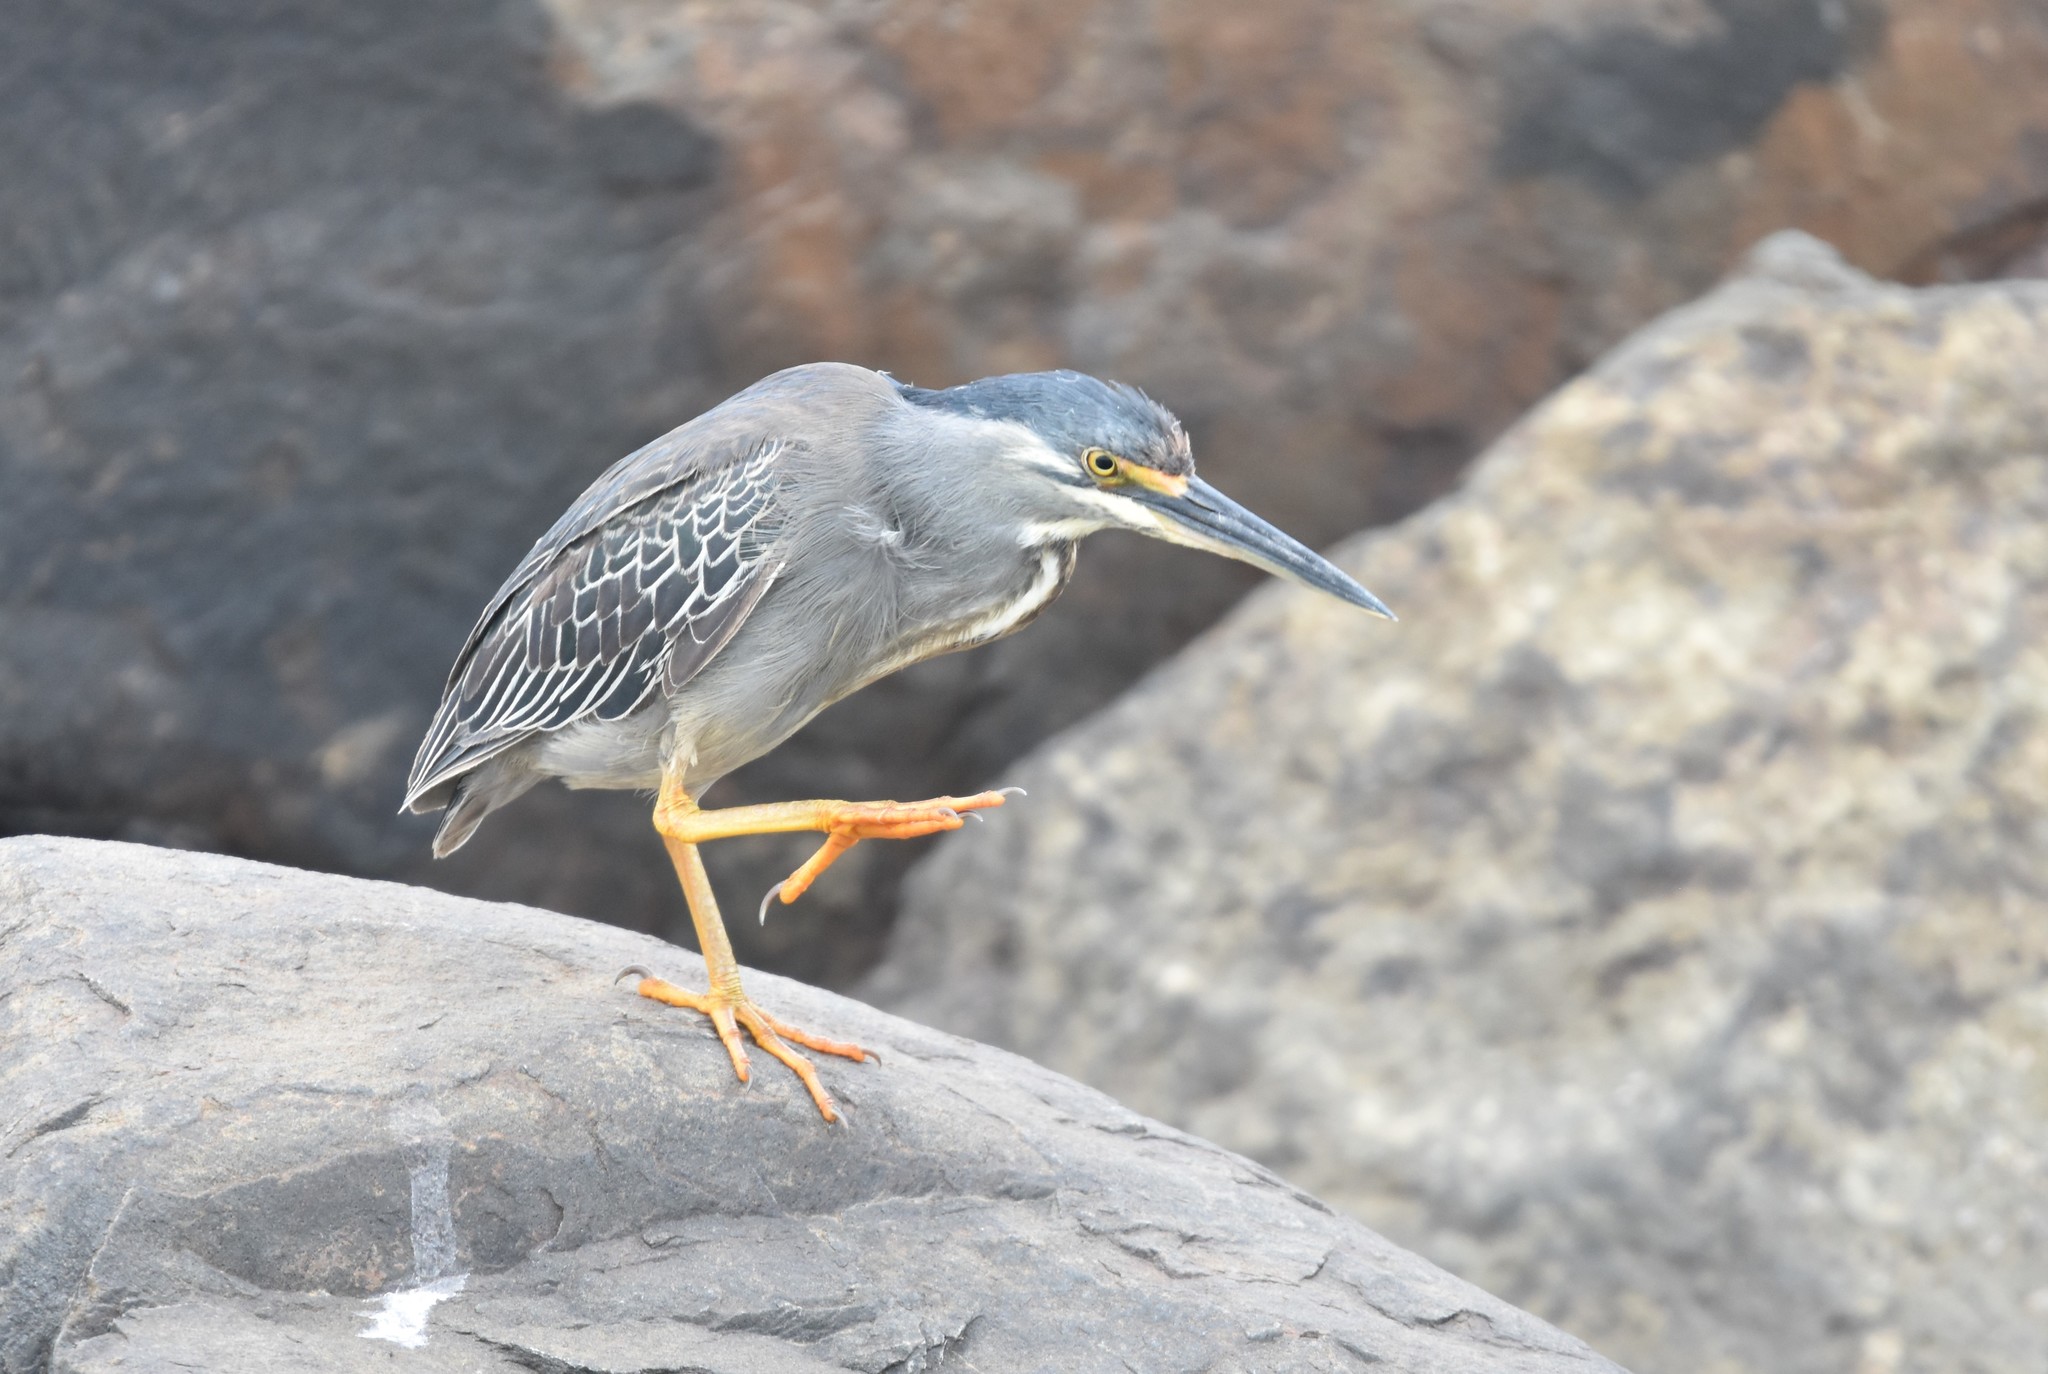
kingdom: Animalia
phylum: Chordata
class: Aves
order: Pelecaniformes
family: Ardeidae
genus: Butorides
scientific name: Butorides striata
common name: Striated heron
